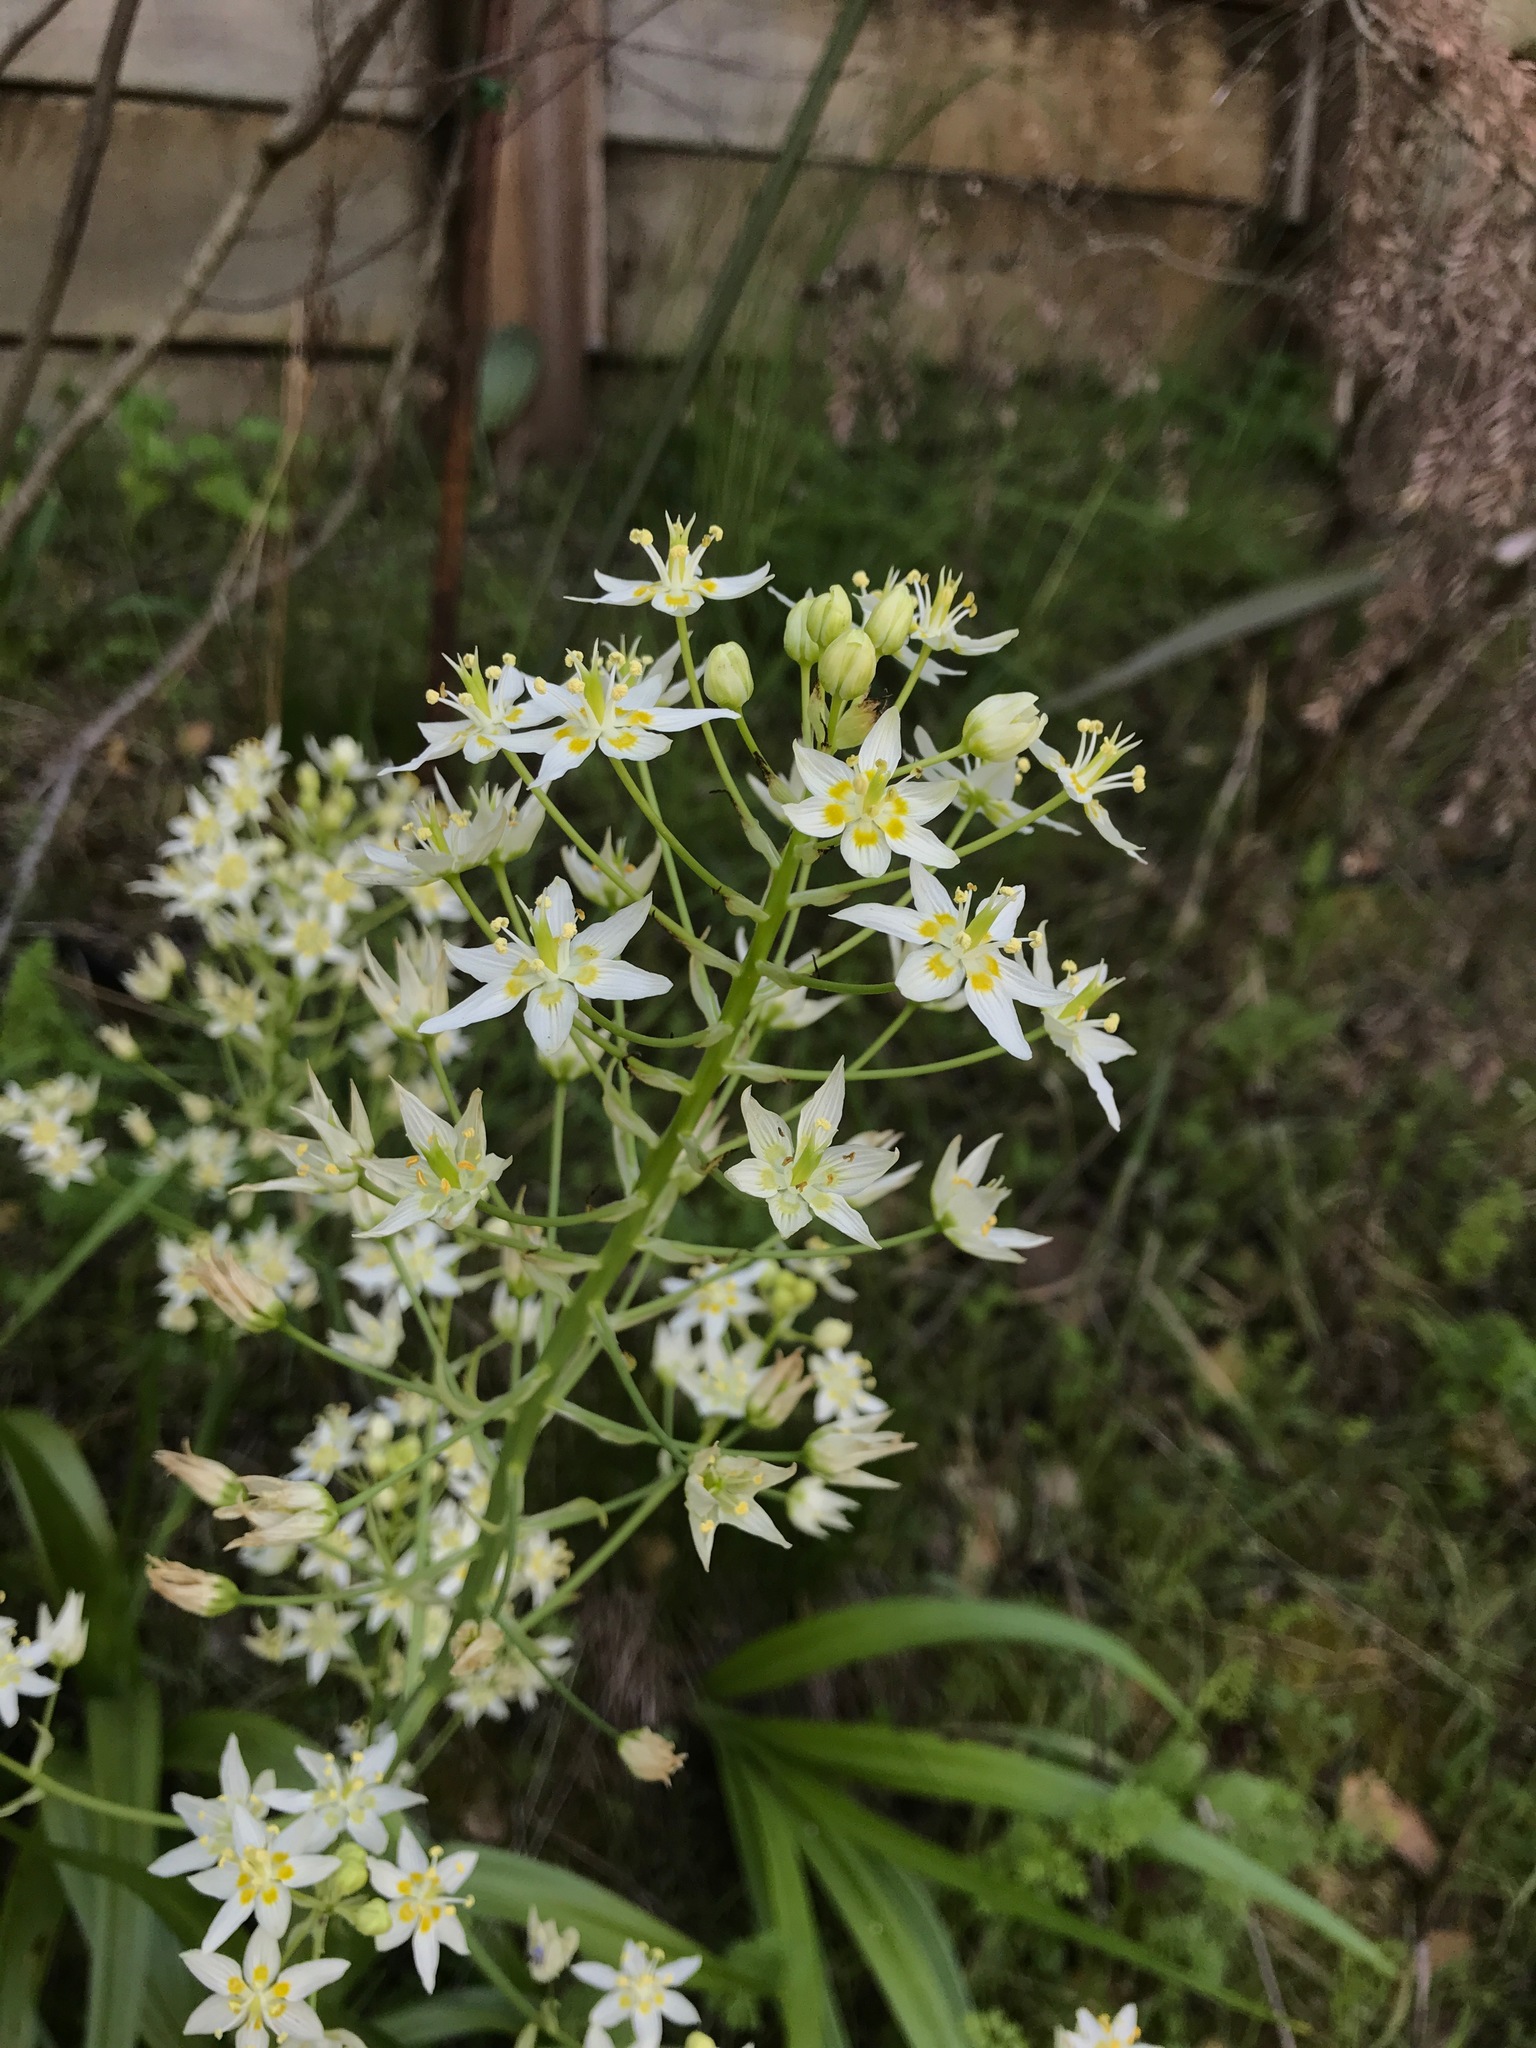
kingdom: Plantae
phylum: Tracheophyta
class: Liliopsida
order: Liliales
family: Melanthiaceae
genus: Toxicoscordion
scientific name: Toxicoscordion fremontii
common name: Fremont's death camas
